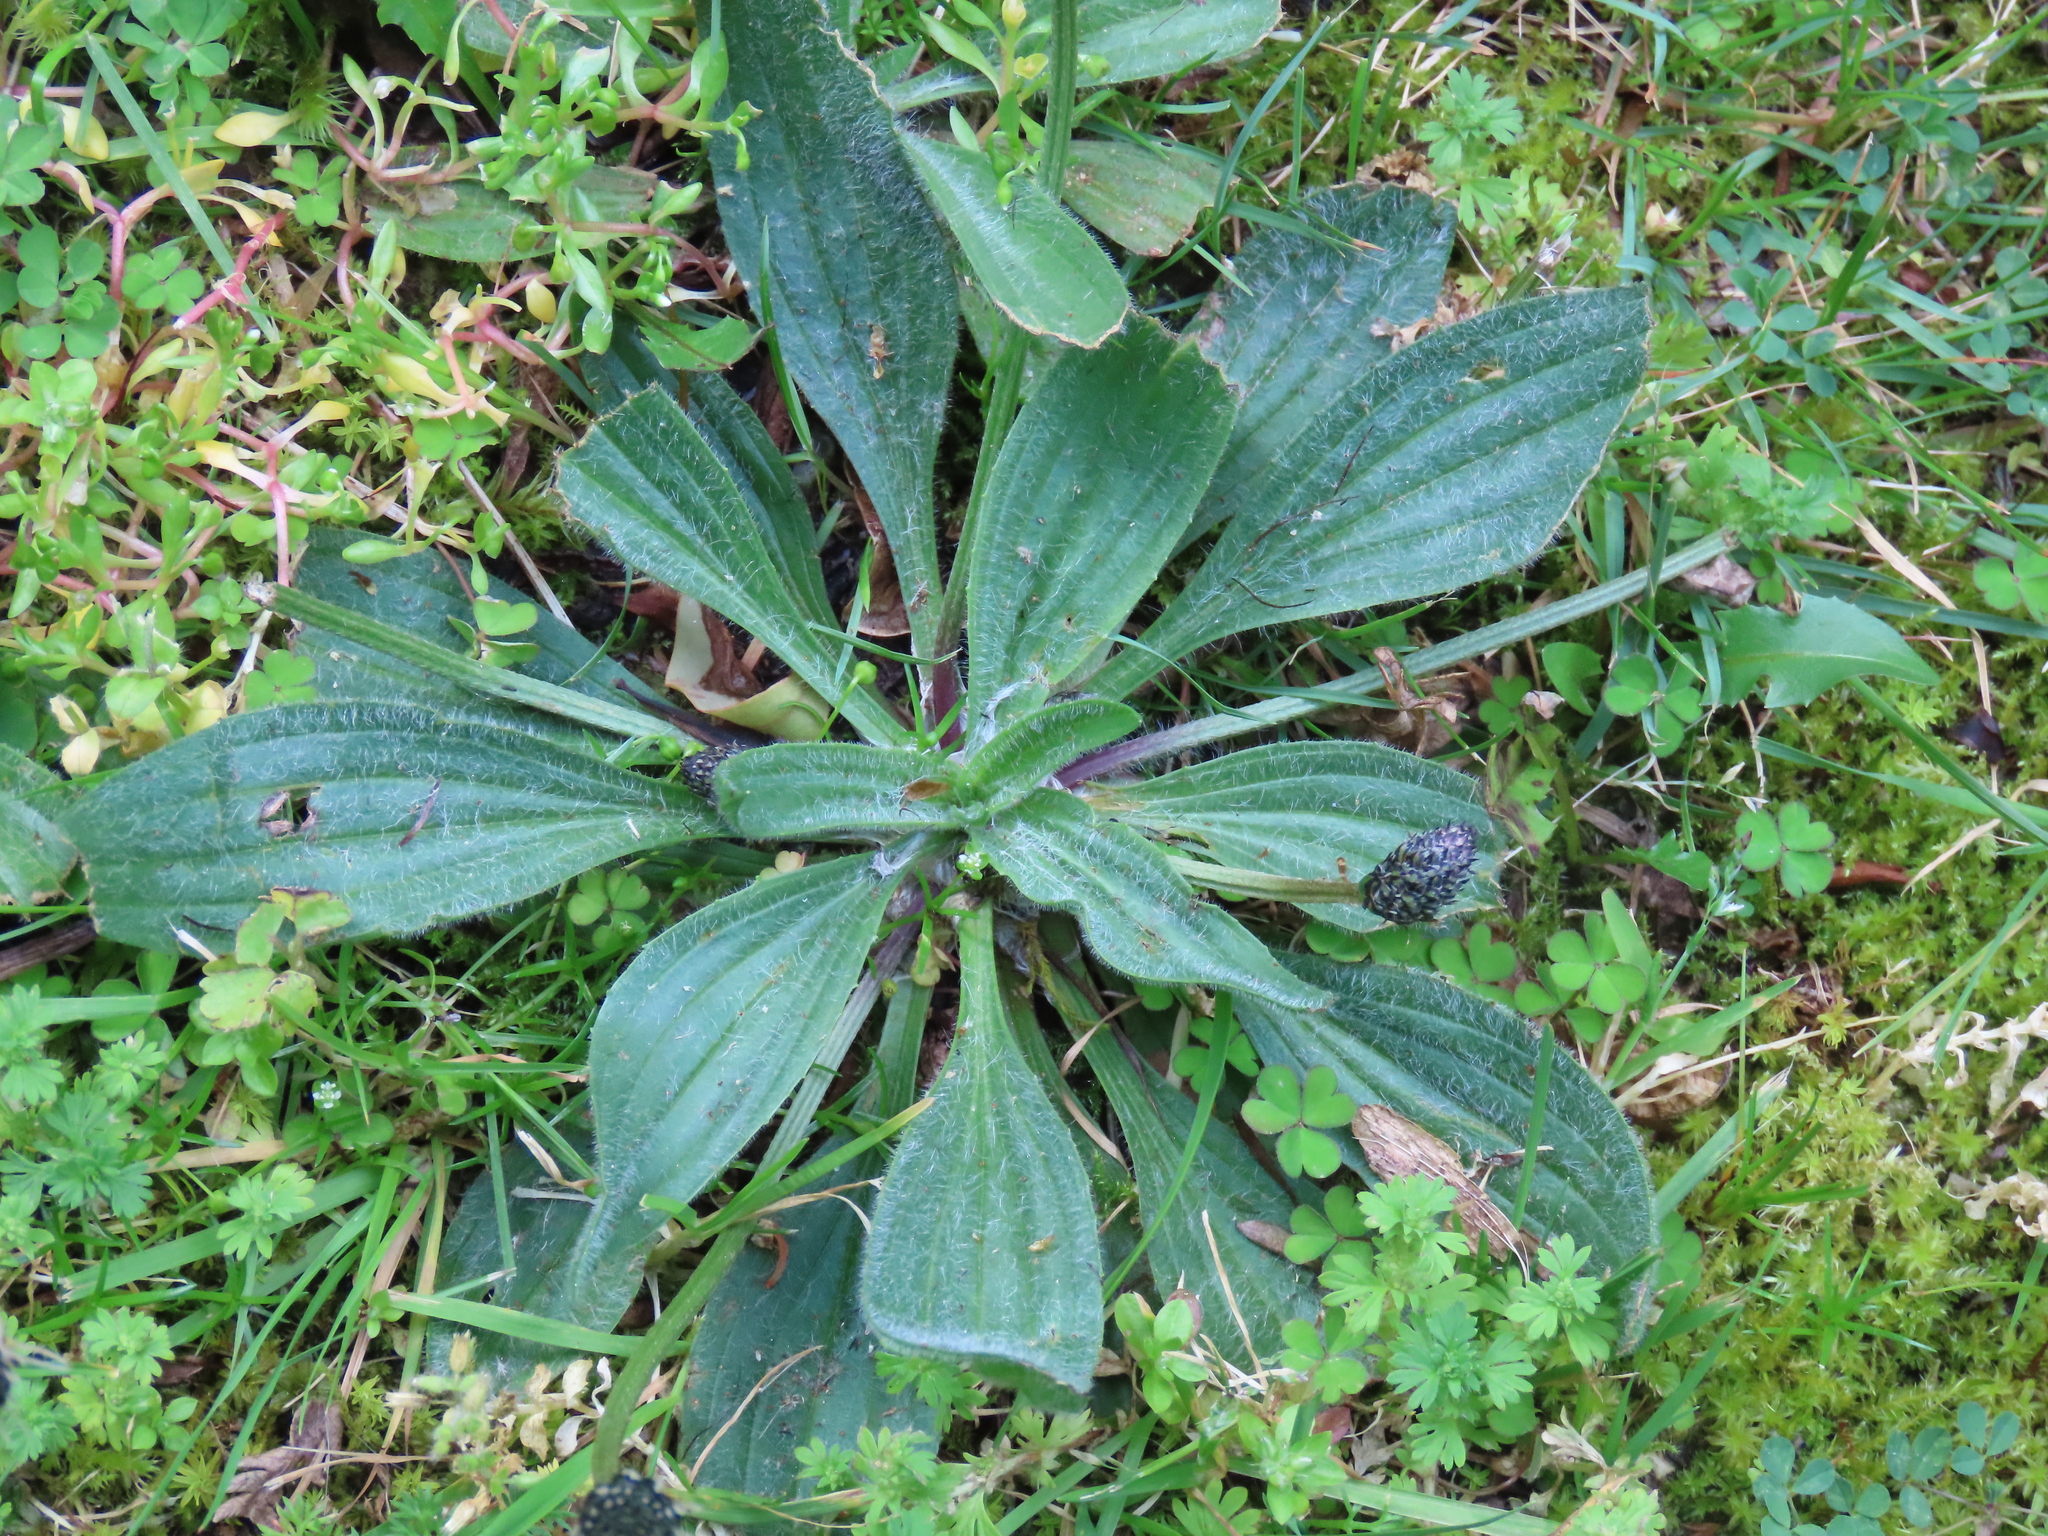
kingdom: Plantae
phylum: Tracheophyta
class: Magnoliopsida
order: Lamiales
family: Plantaginaceae
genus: Plantago
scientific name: Plantago lanceolata
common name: Ribwort plantain
